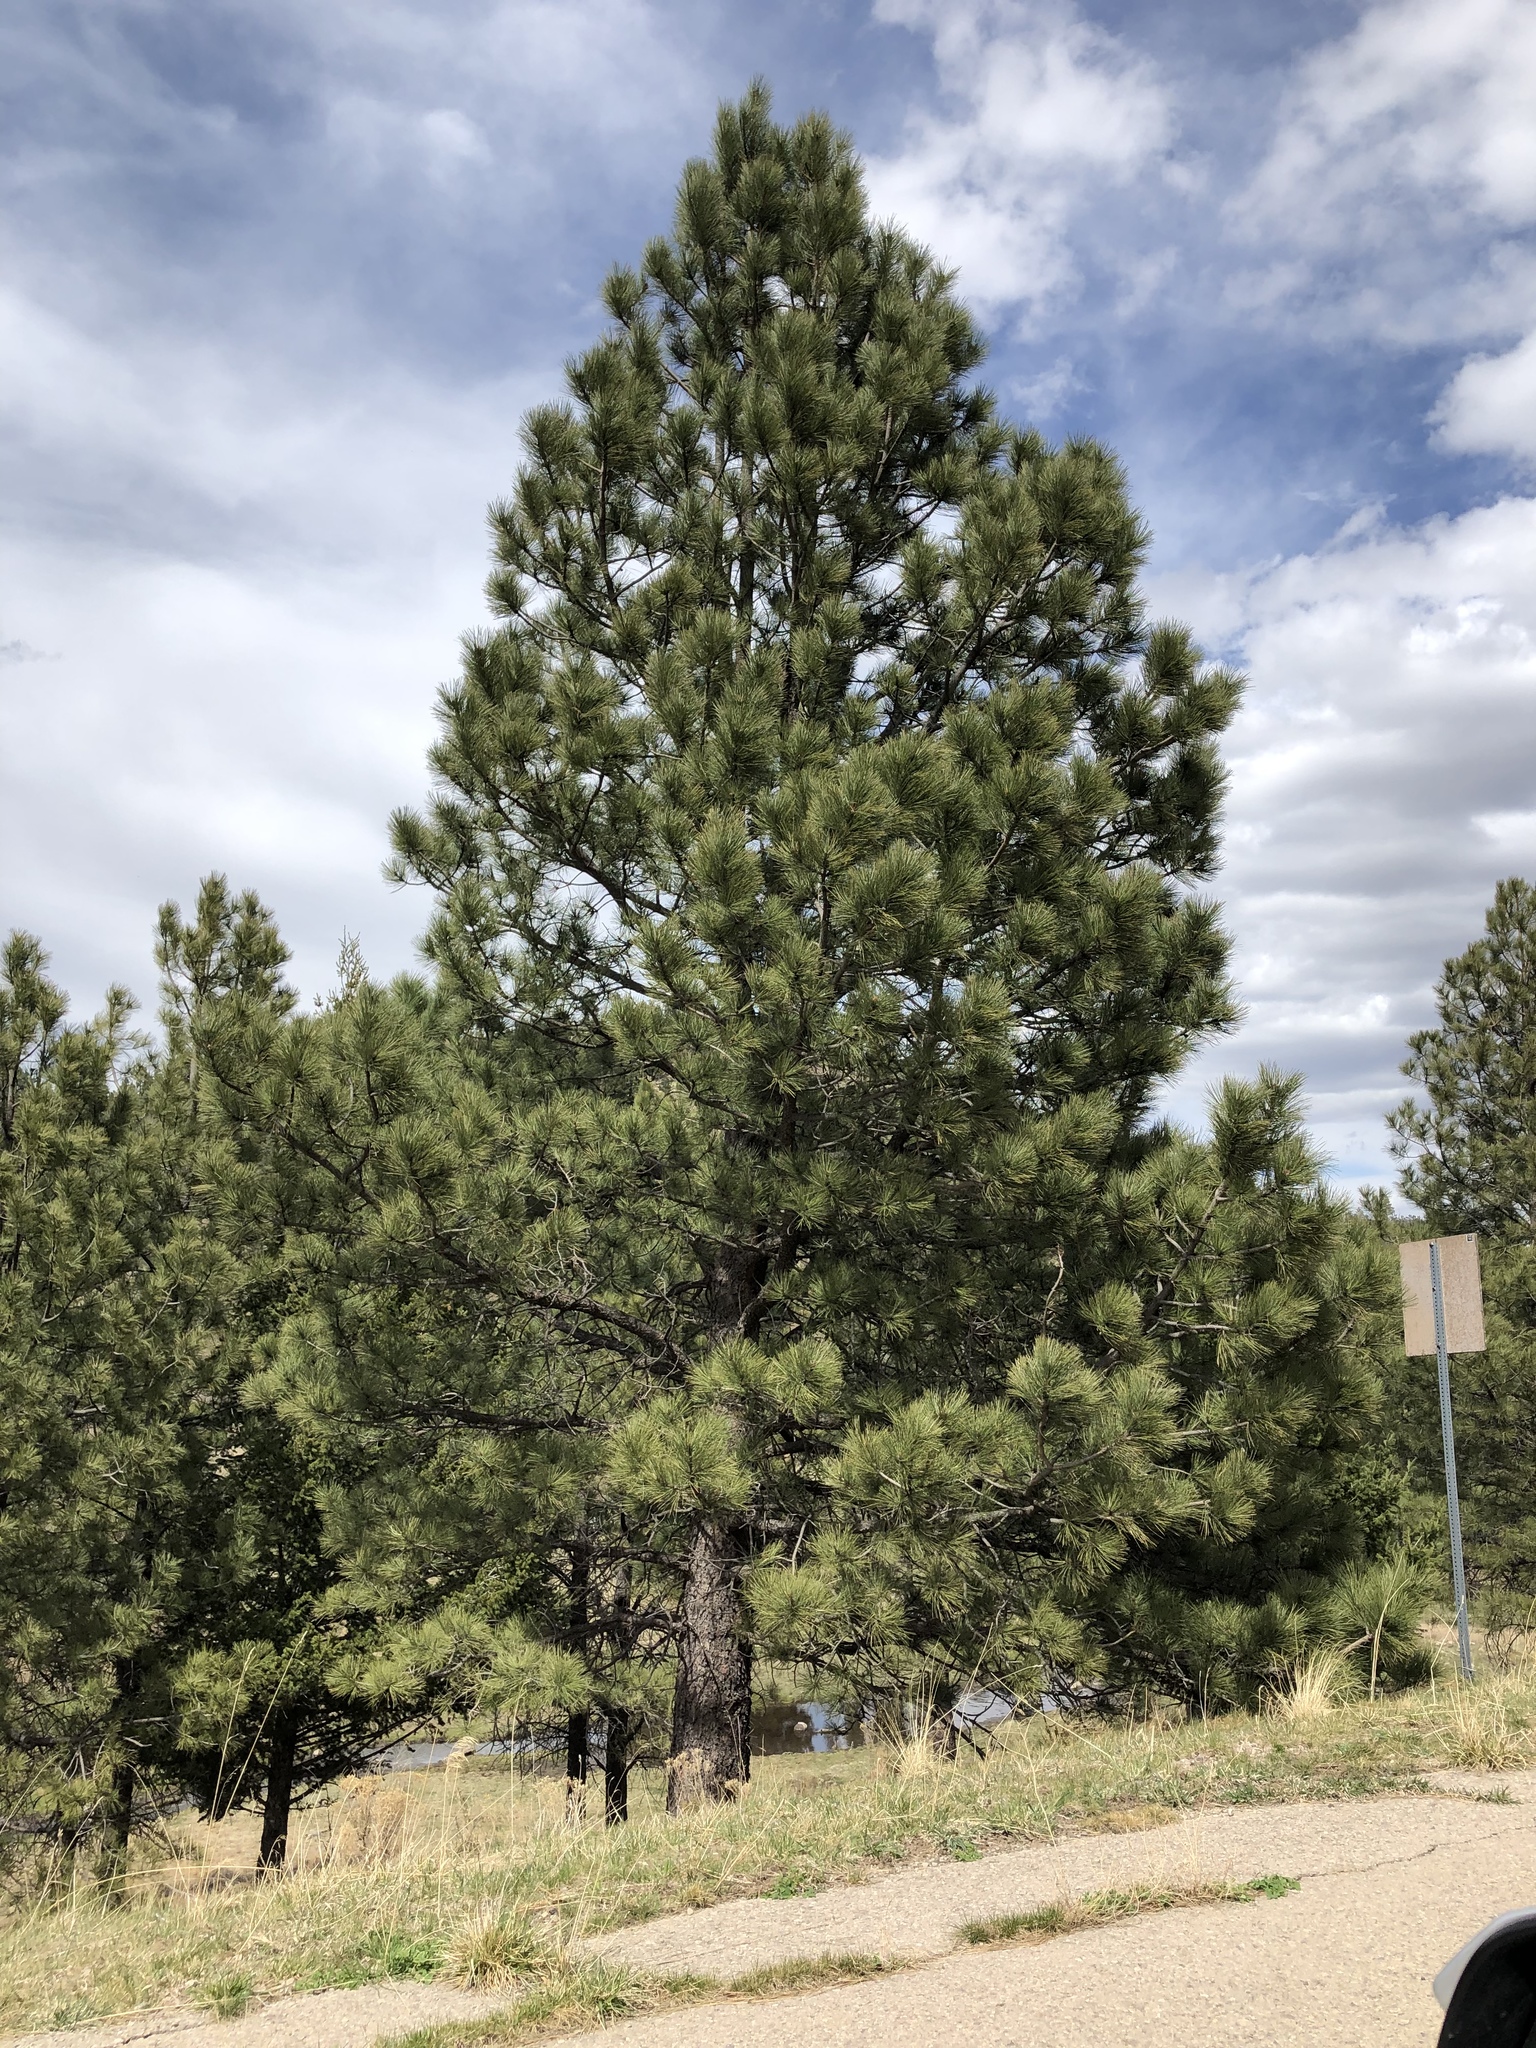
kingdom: Plantae
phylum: Tracheophyta
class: Pinopsida
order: Pinales
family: Pinaceae
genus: Pinus
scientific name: Pinus ponderosa
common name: Western yellow-pine
